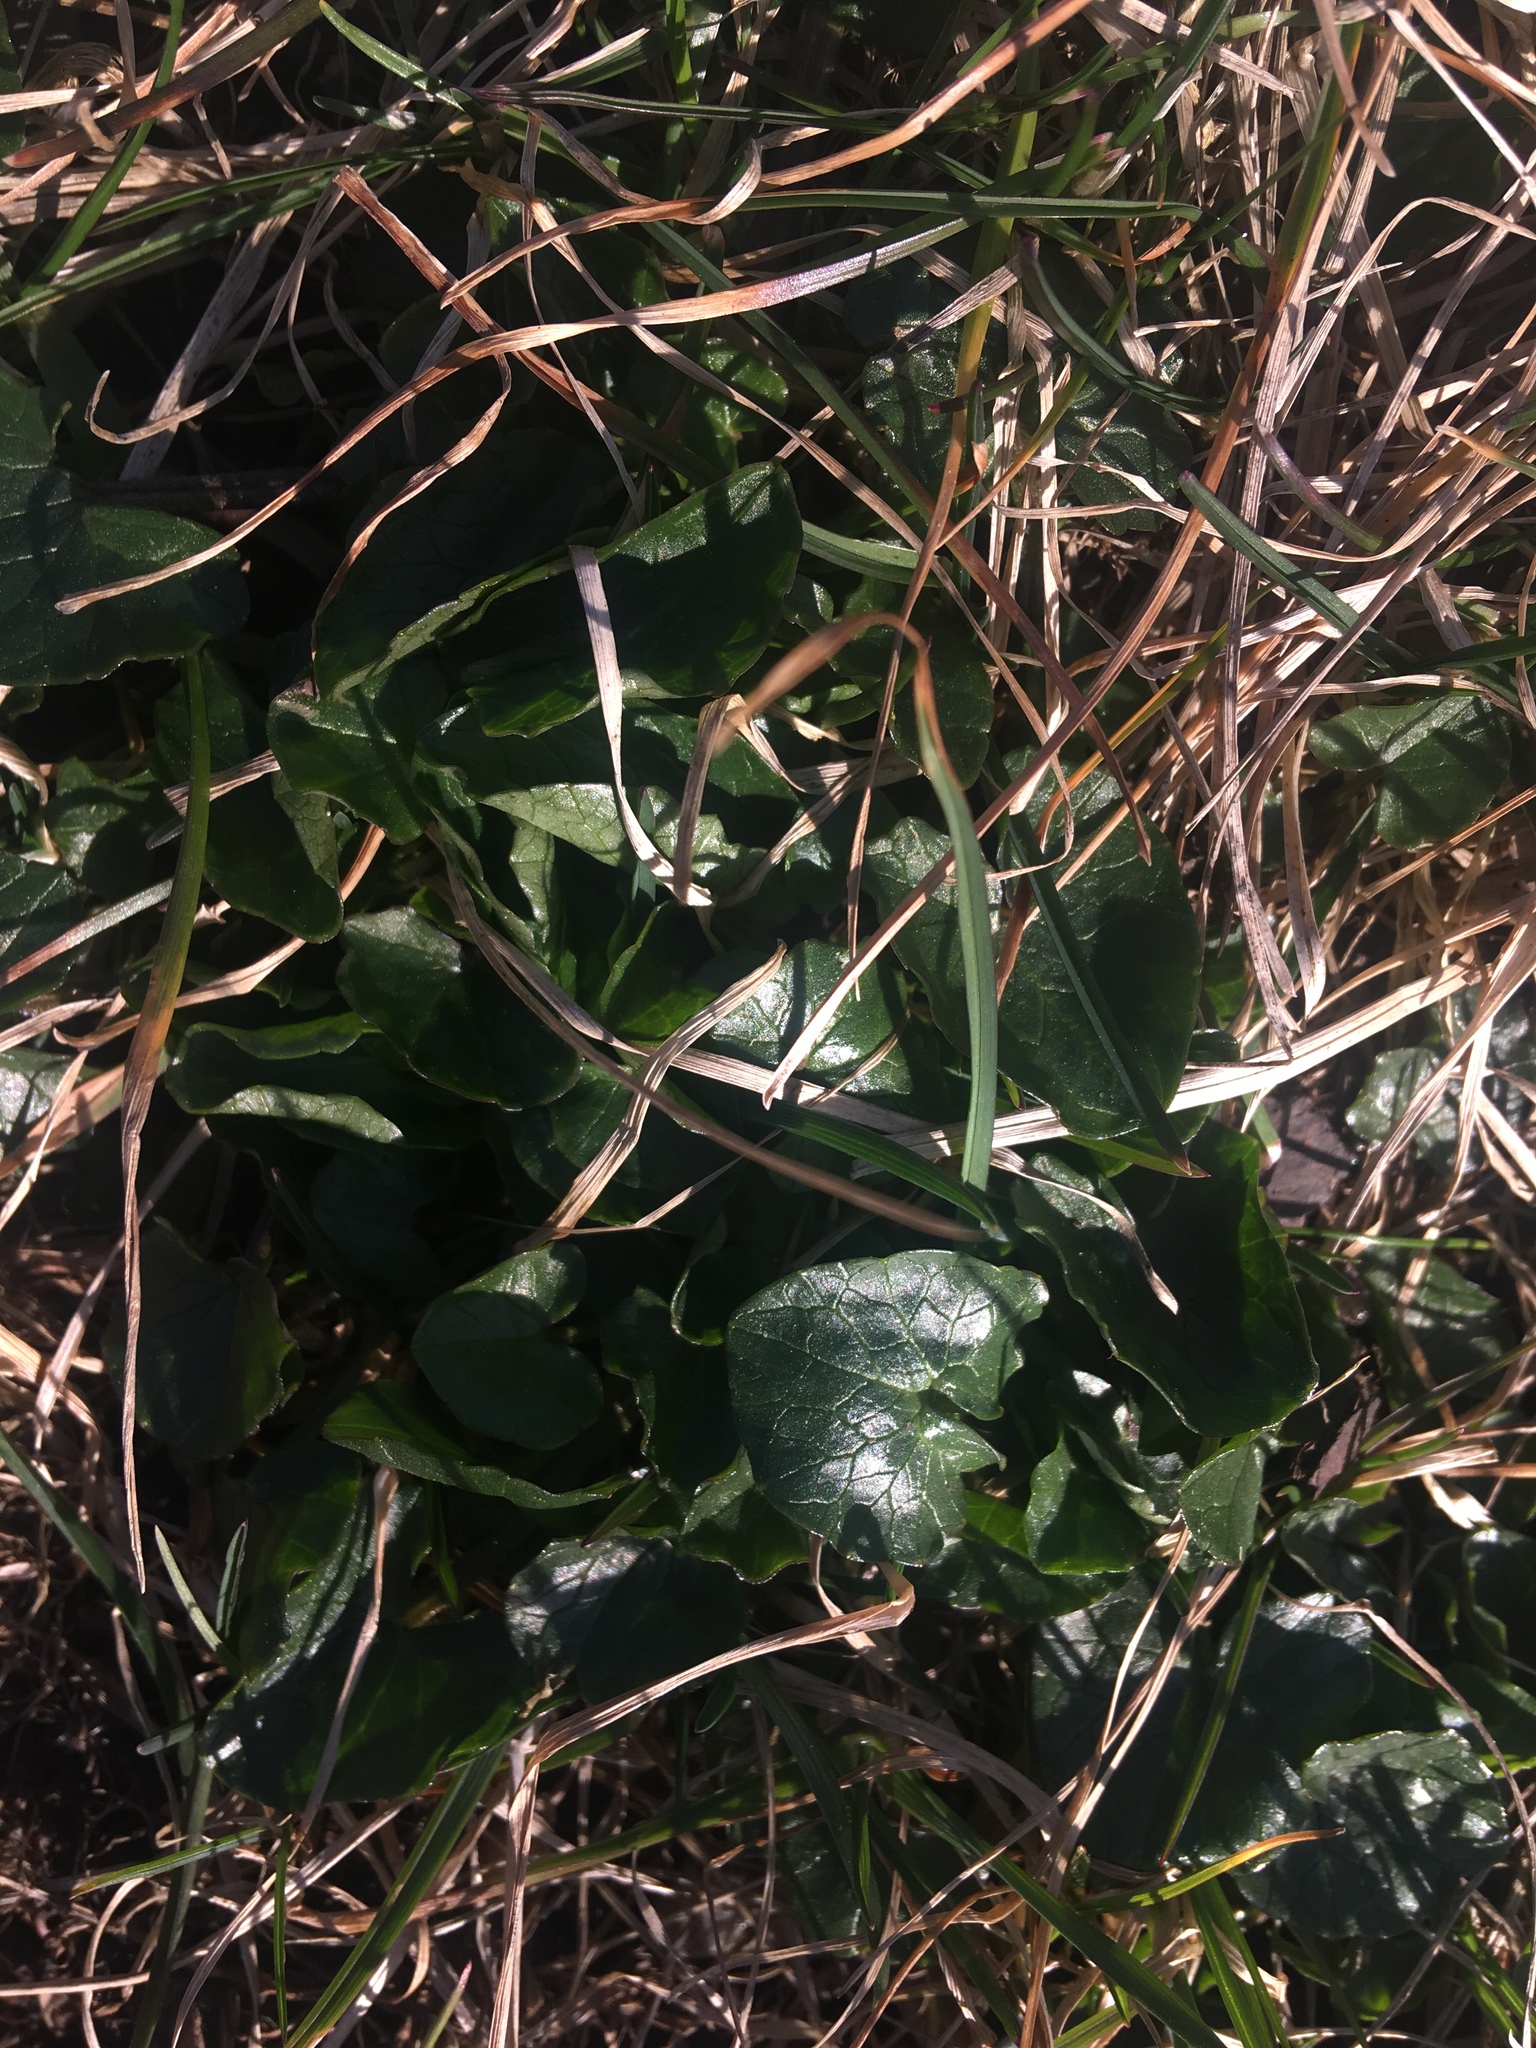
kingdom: Plantae
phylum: Tracheophyta
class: Magnoliopsida
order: Ranunculales
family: Ranunculaceae
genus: Ficaria
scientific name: Ficaria verna
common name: Lesser celandine
